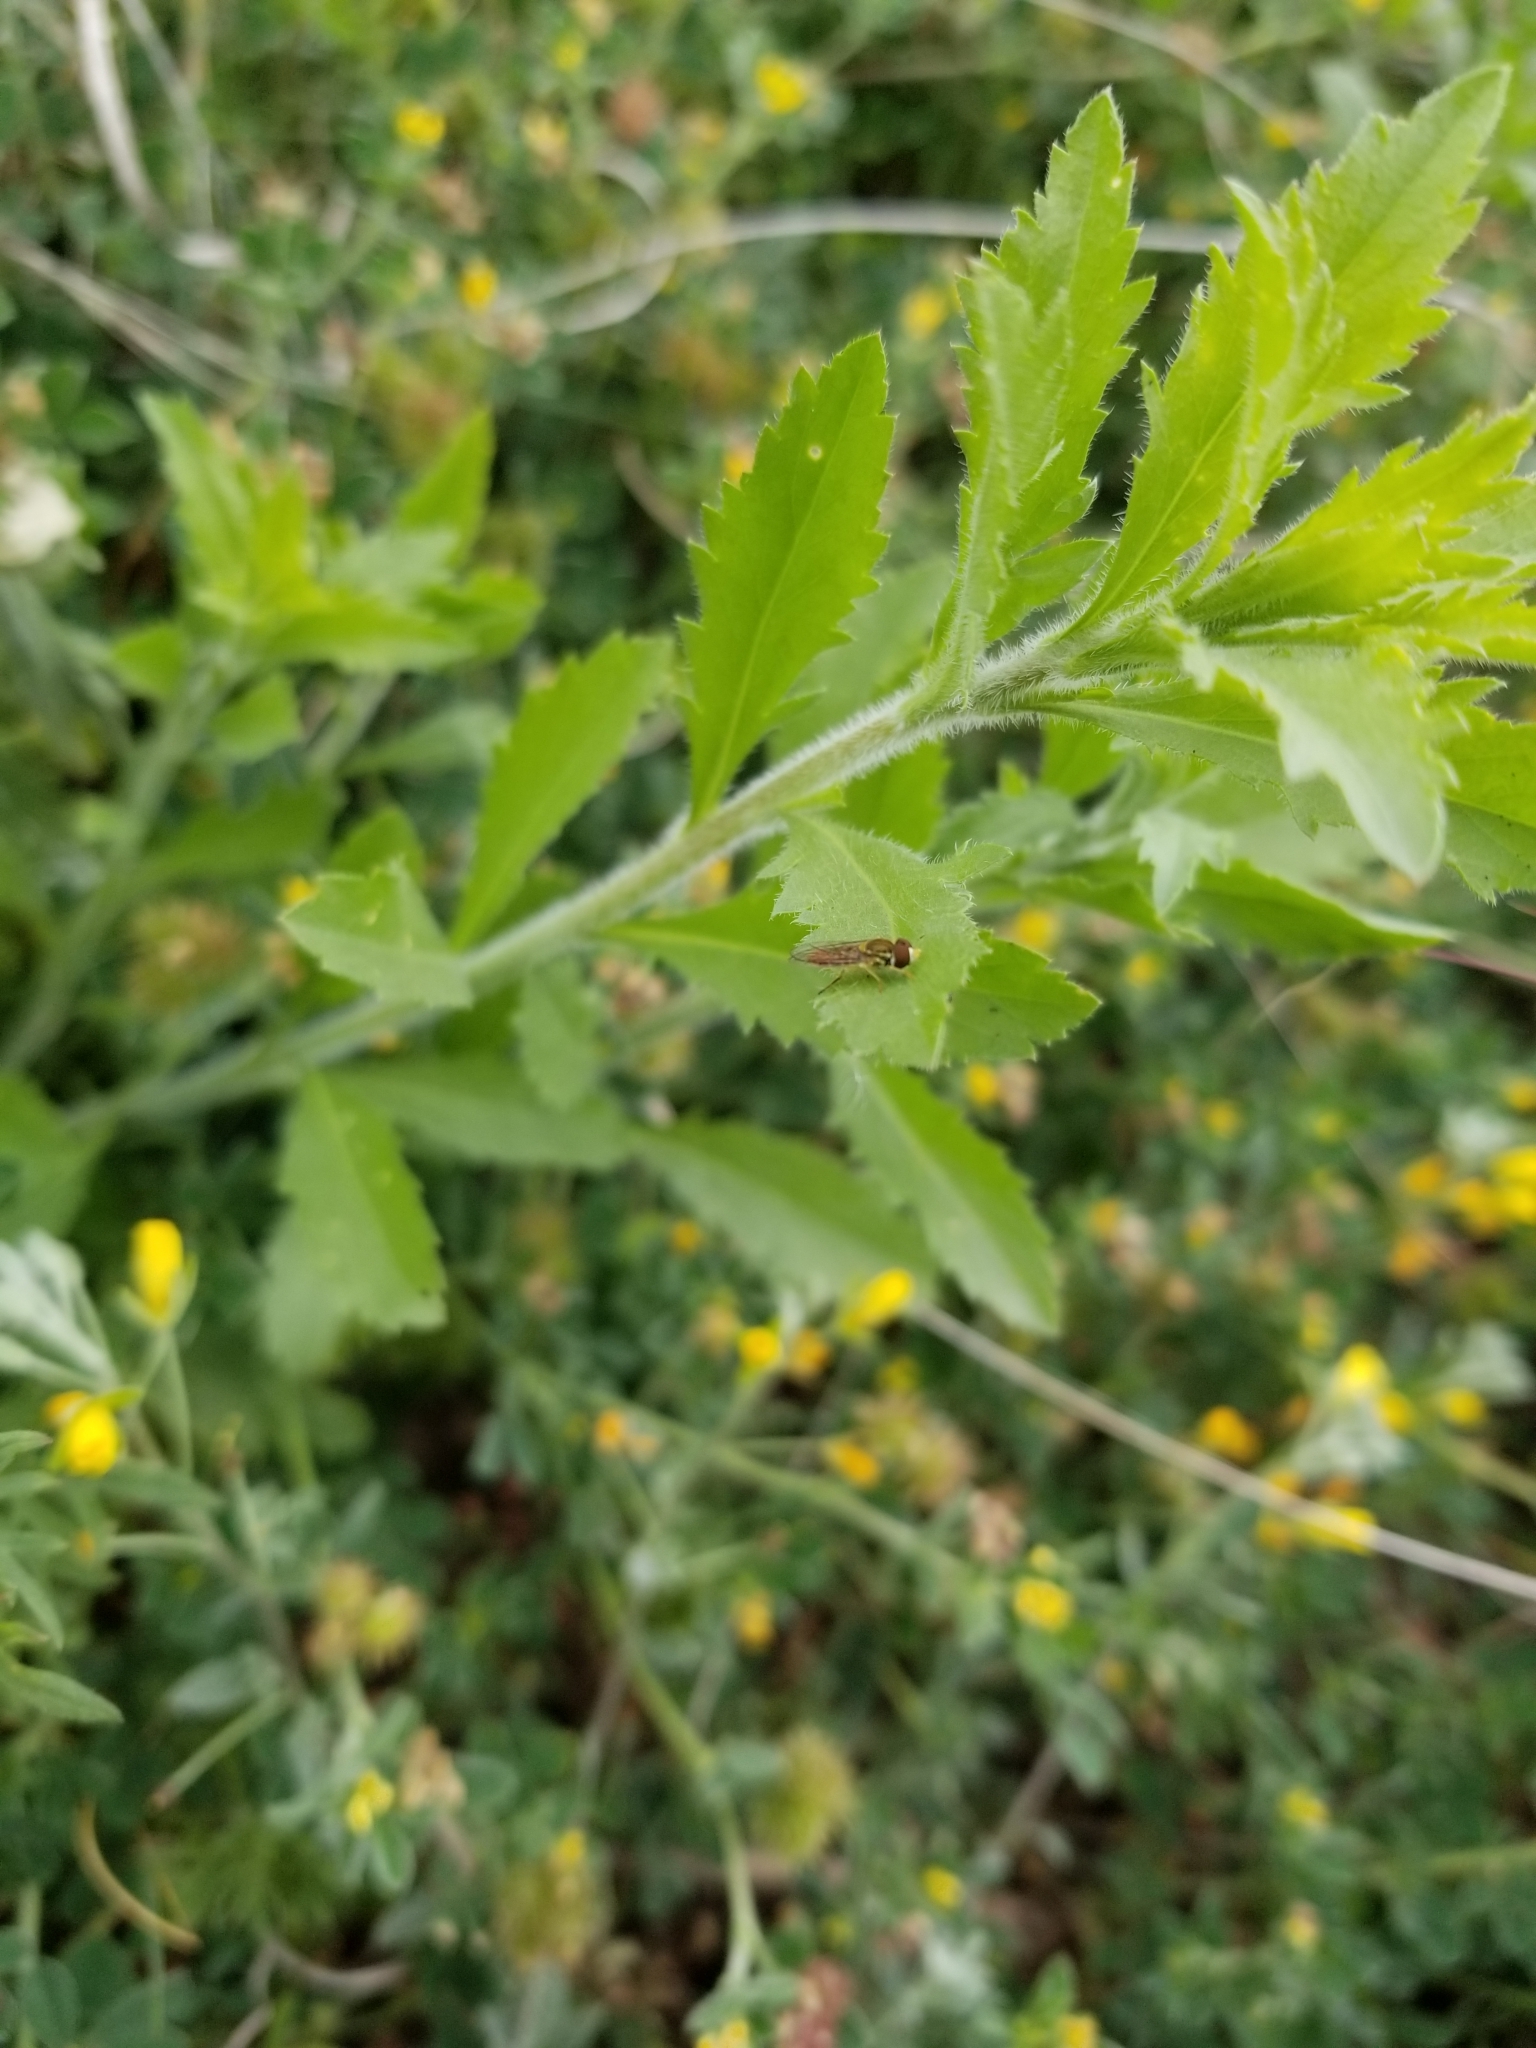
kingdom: Animalia
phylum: Arthropoda
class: Insecta
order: Diptera
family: Syrphidae
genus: Toxomerus
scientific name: Toxomerus marginatus
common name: Syrphid fly
